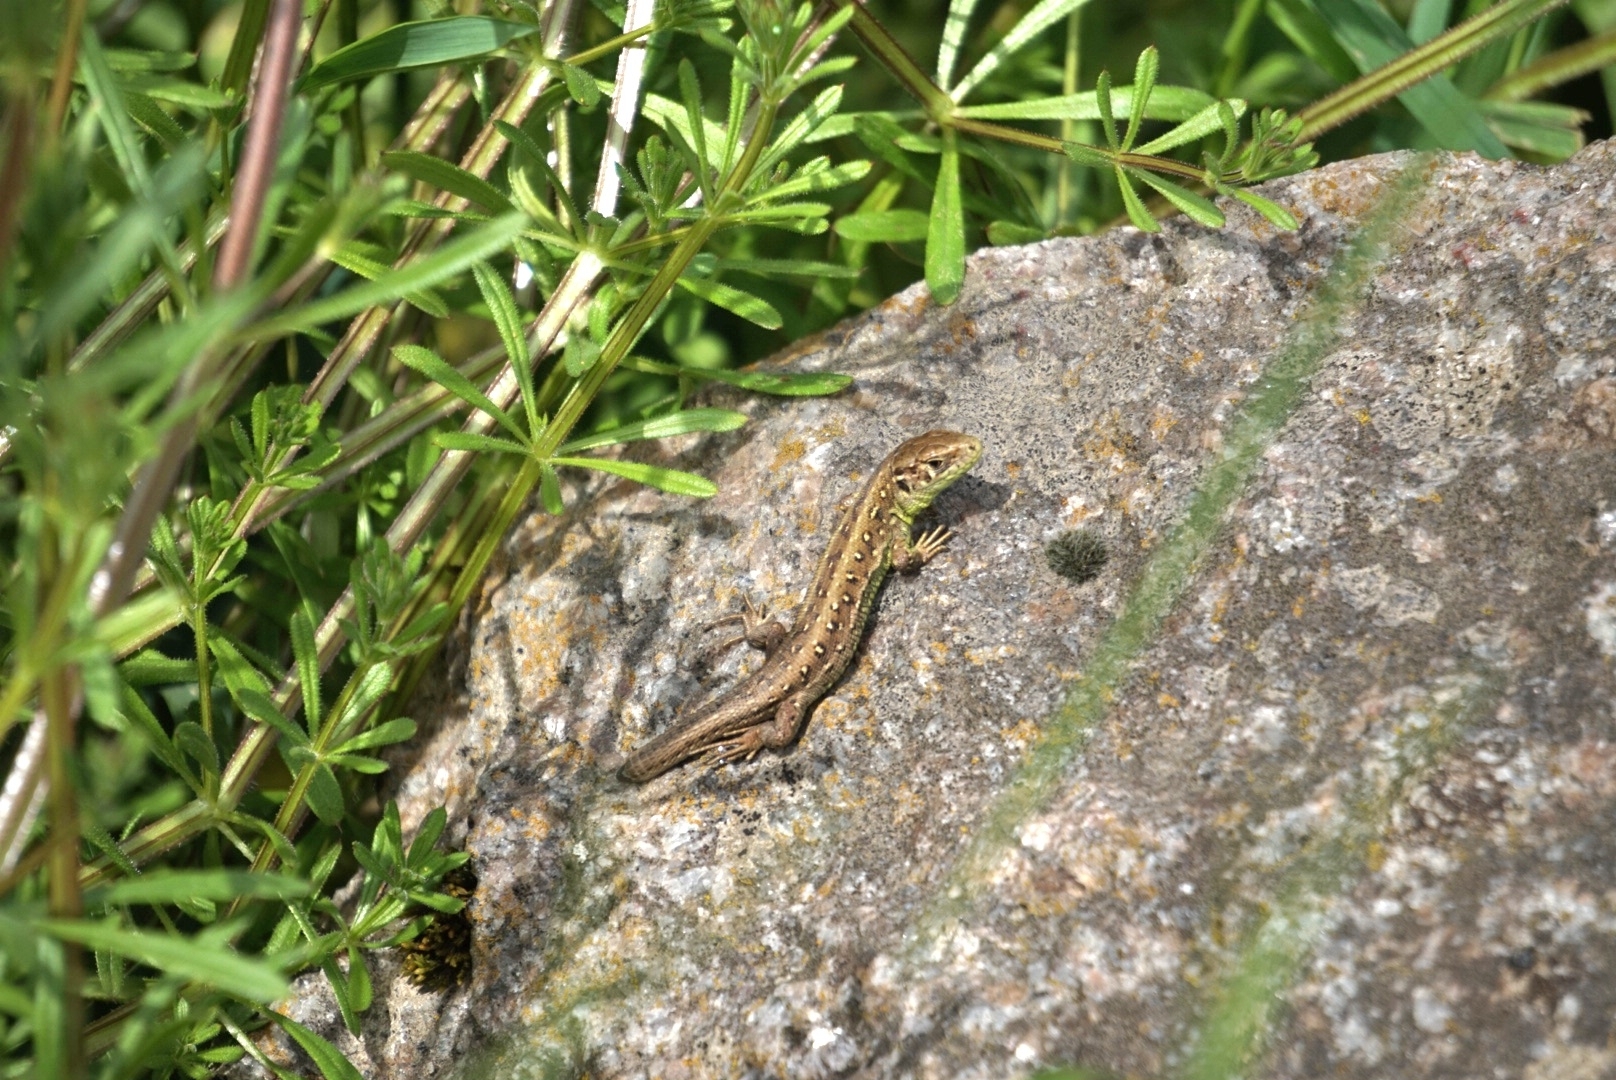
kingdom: Animalia
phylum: Chordata
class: Squamata
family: Lacertidae
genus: Lacerta
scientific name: Lacerta agilis
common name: Sand lizard
